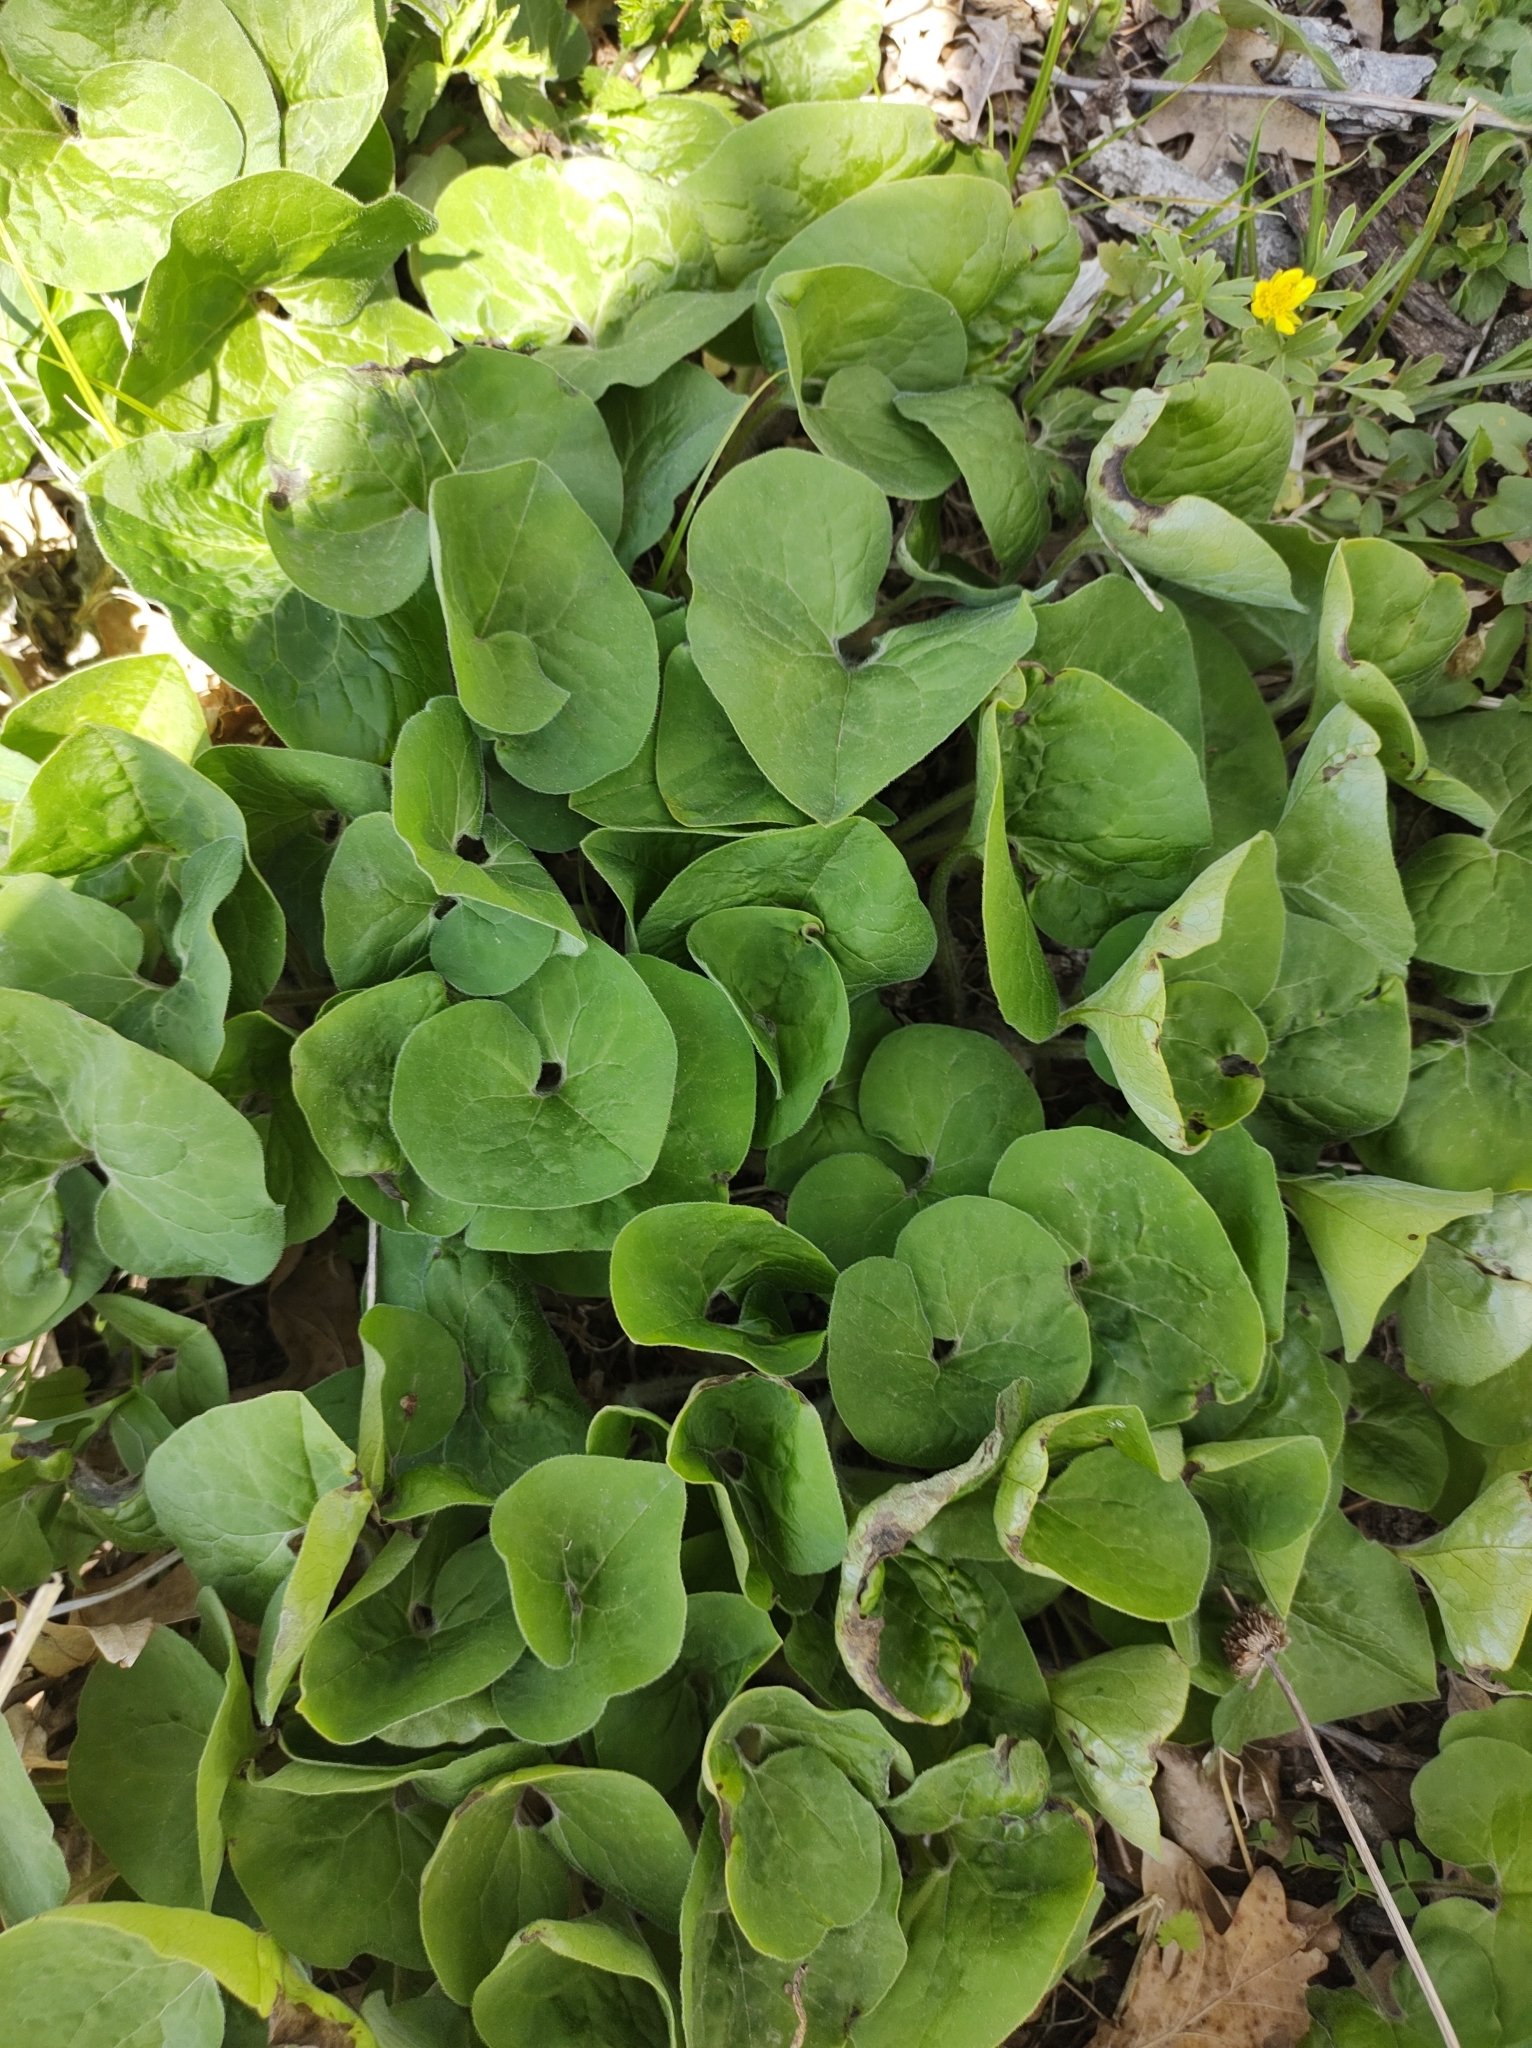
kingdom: Plantae
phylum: Tracheophyta
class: Magnoliopsida
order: Piperales
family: Aristolochiaceae
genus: Asarum
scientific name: Asarum canadense
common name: Wild ginger
